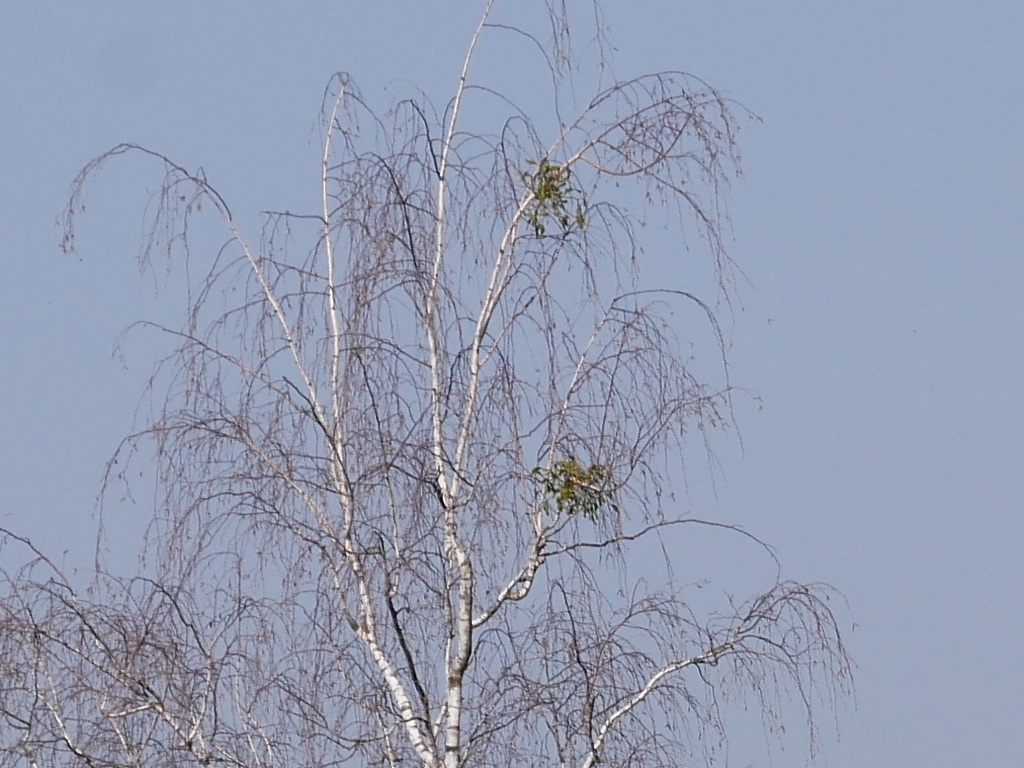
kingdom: Plantae
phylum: Tracheophyta
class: Magnoliopsida
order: Santalales
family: Viscaceae
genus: Viscum
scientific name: Viscum album
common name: Mistletoe
